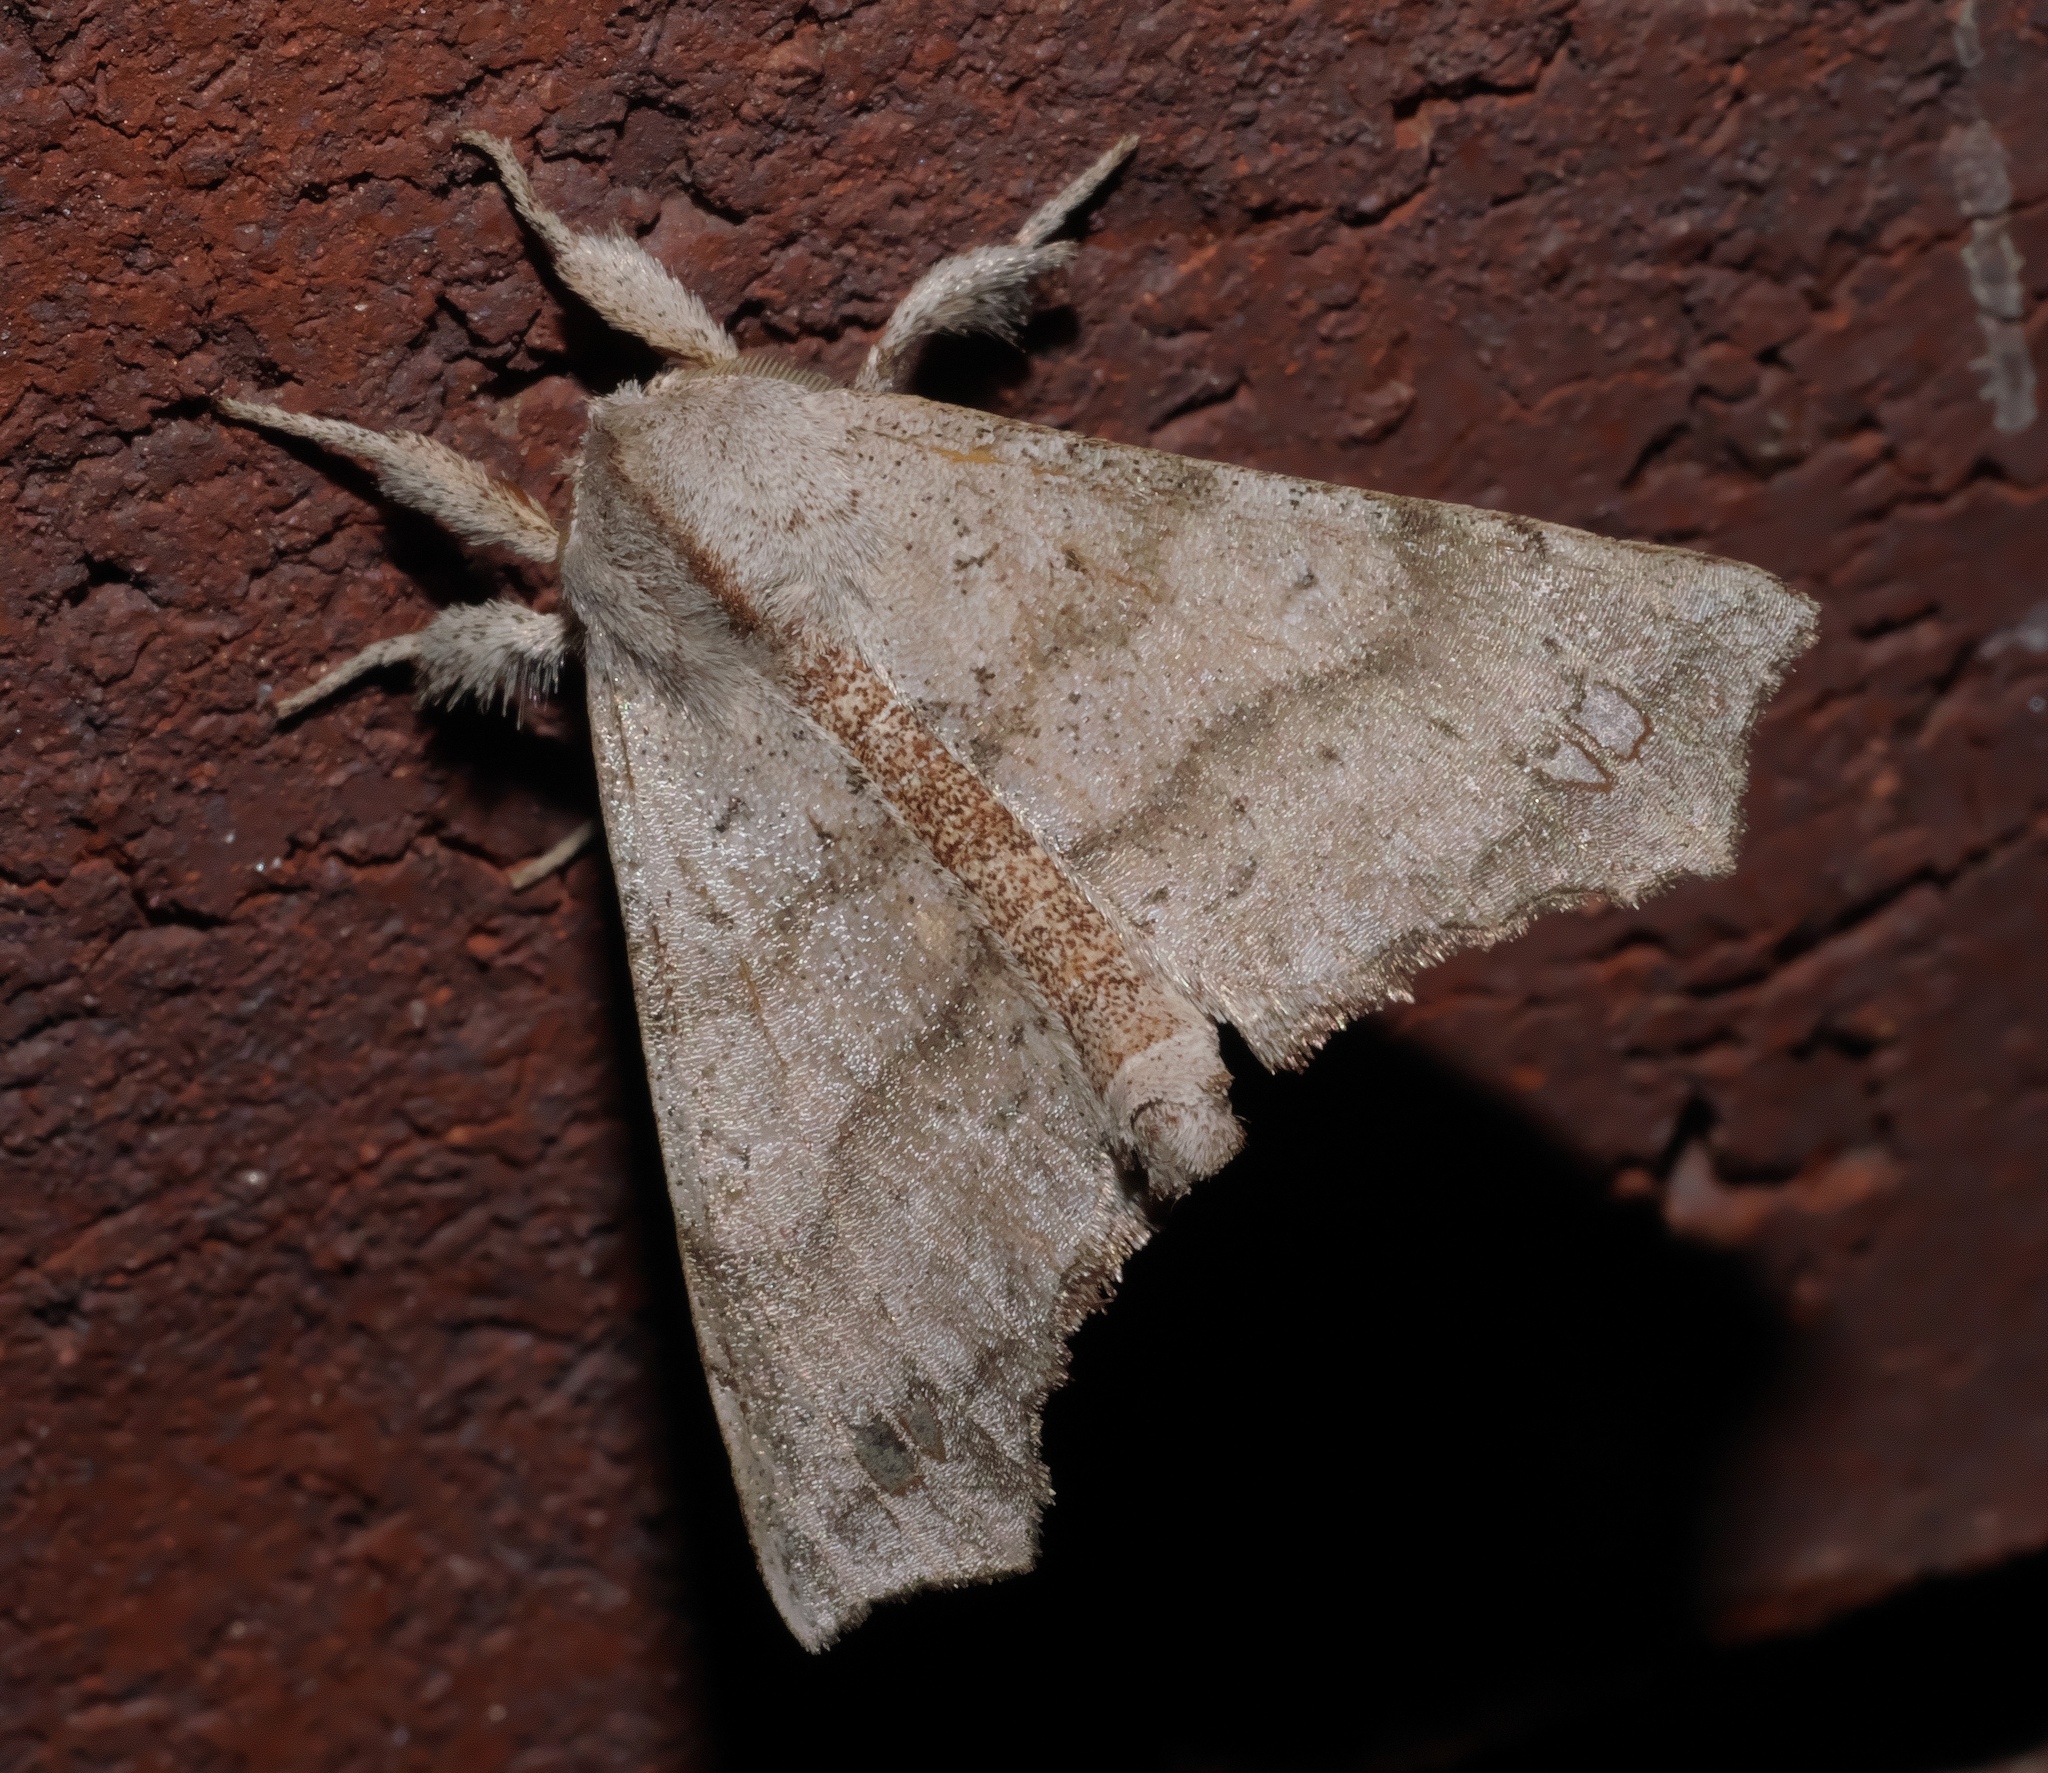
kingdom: Animalia
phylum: Arthropoda
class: Insecta
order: Lepidoptera
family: Apatelodidae
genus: Olceclostera
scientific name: Olceclostera angelica
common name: Angel moth
